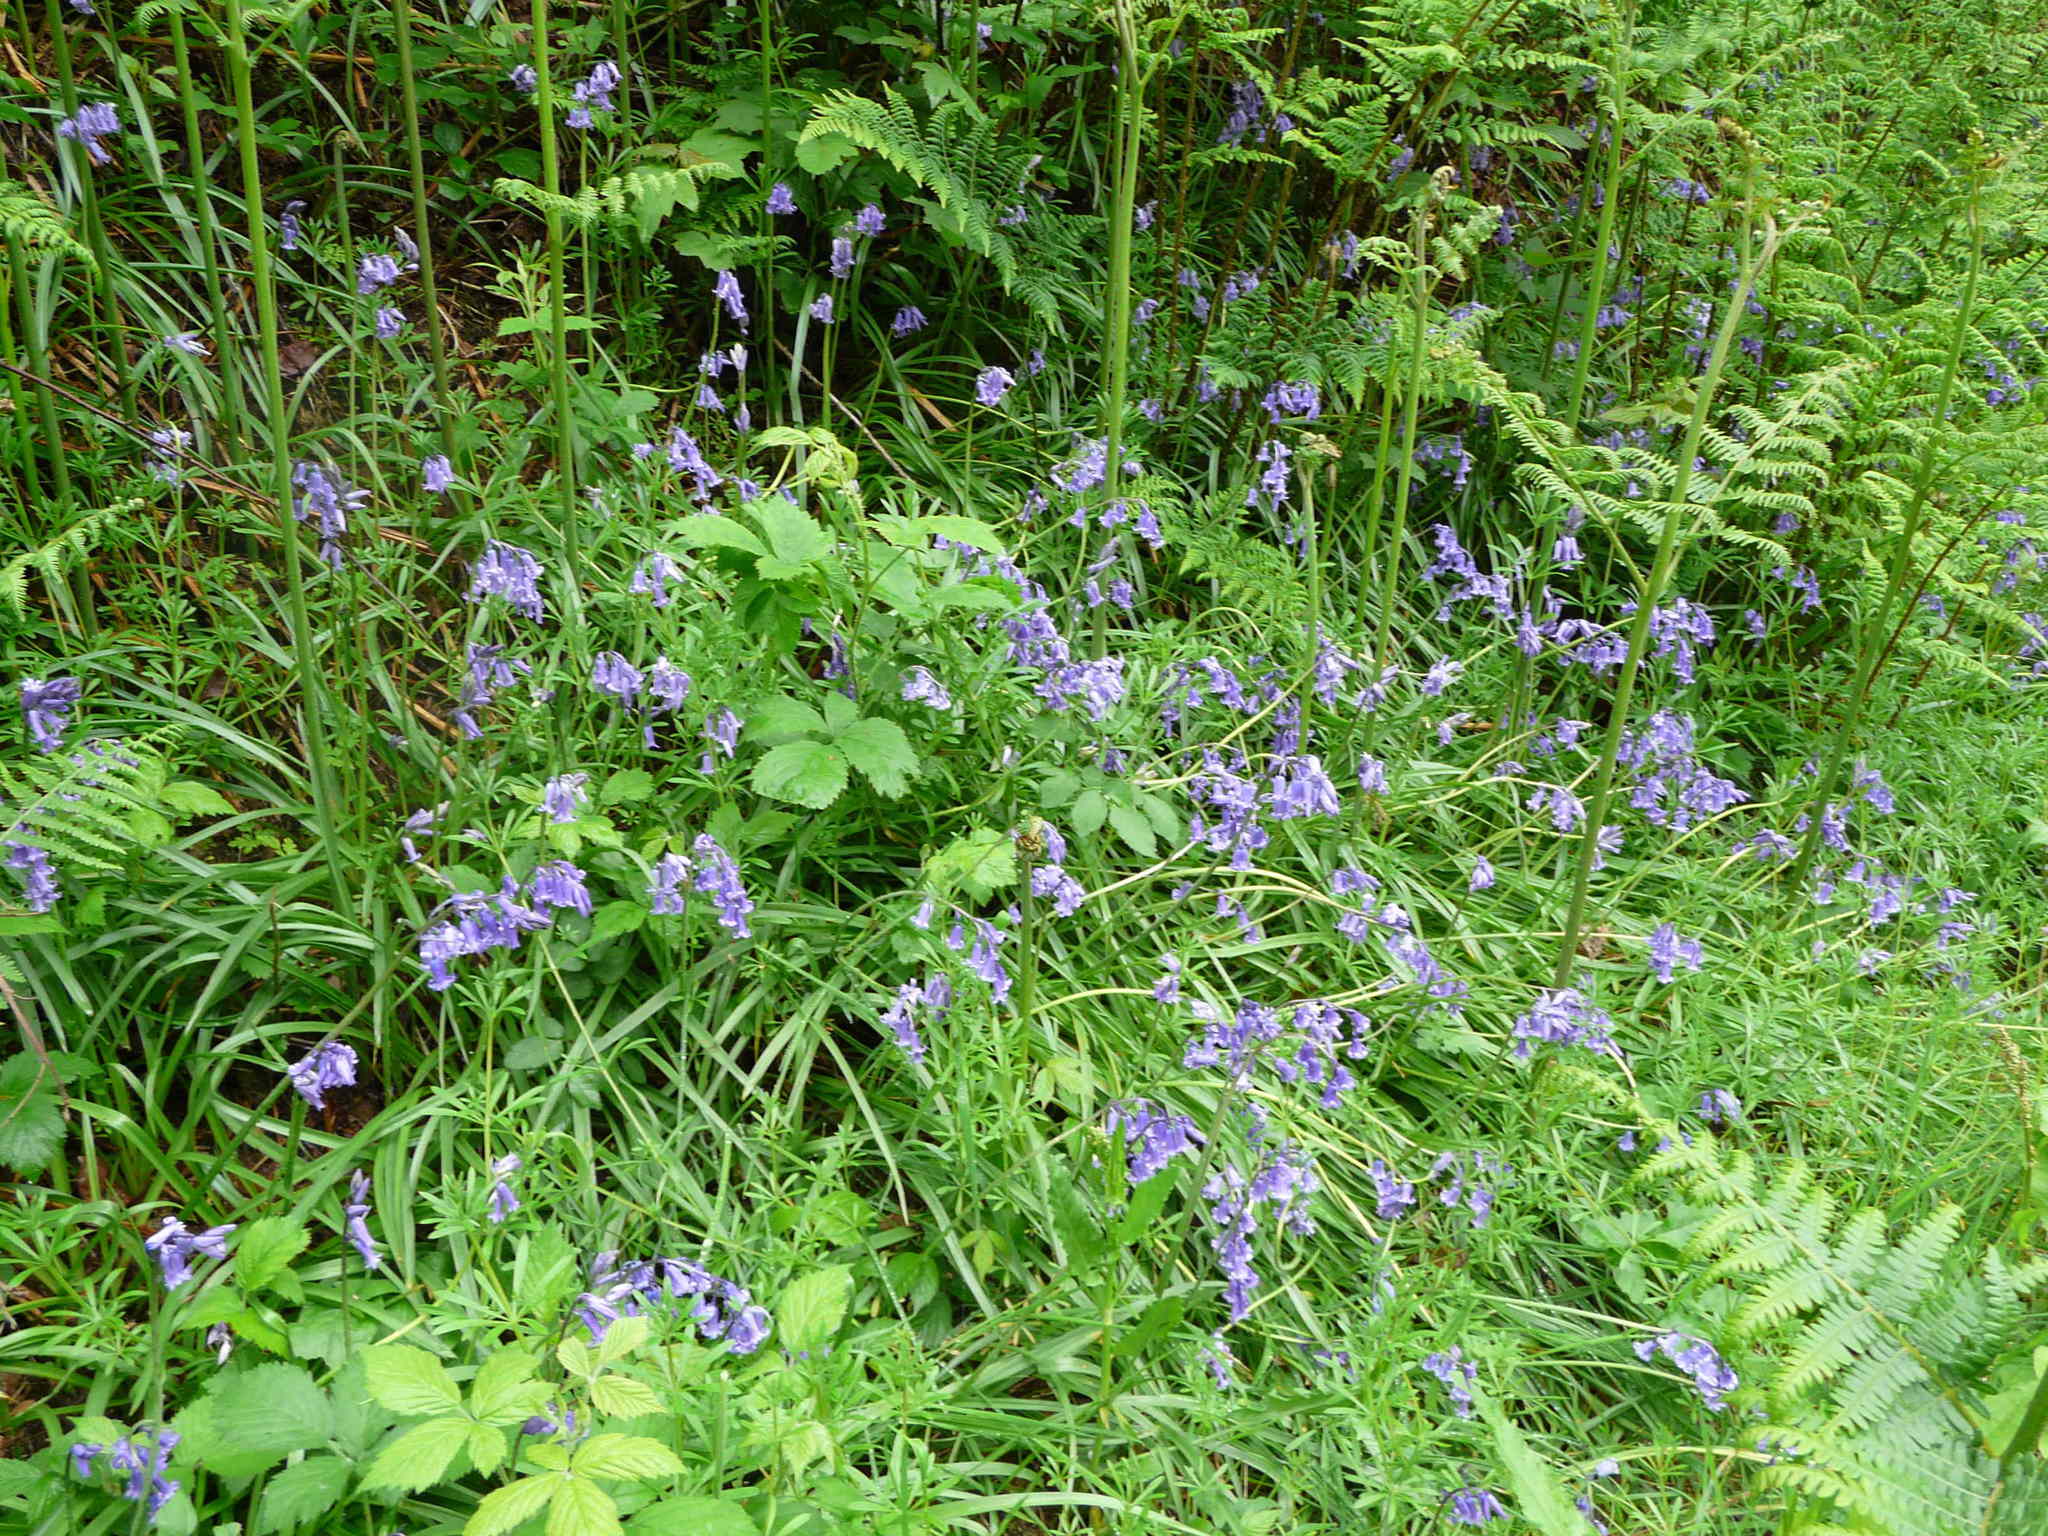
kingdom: Plantae
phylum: Tracheophyta
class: Liliopsida
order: Asparagales
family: Asparagaceae
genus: Hyacinthoides
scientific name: Hyacinthoides non-scripta
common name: Bluebell
